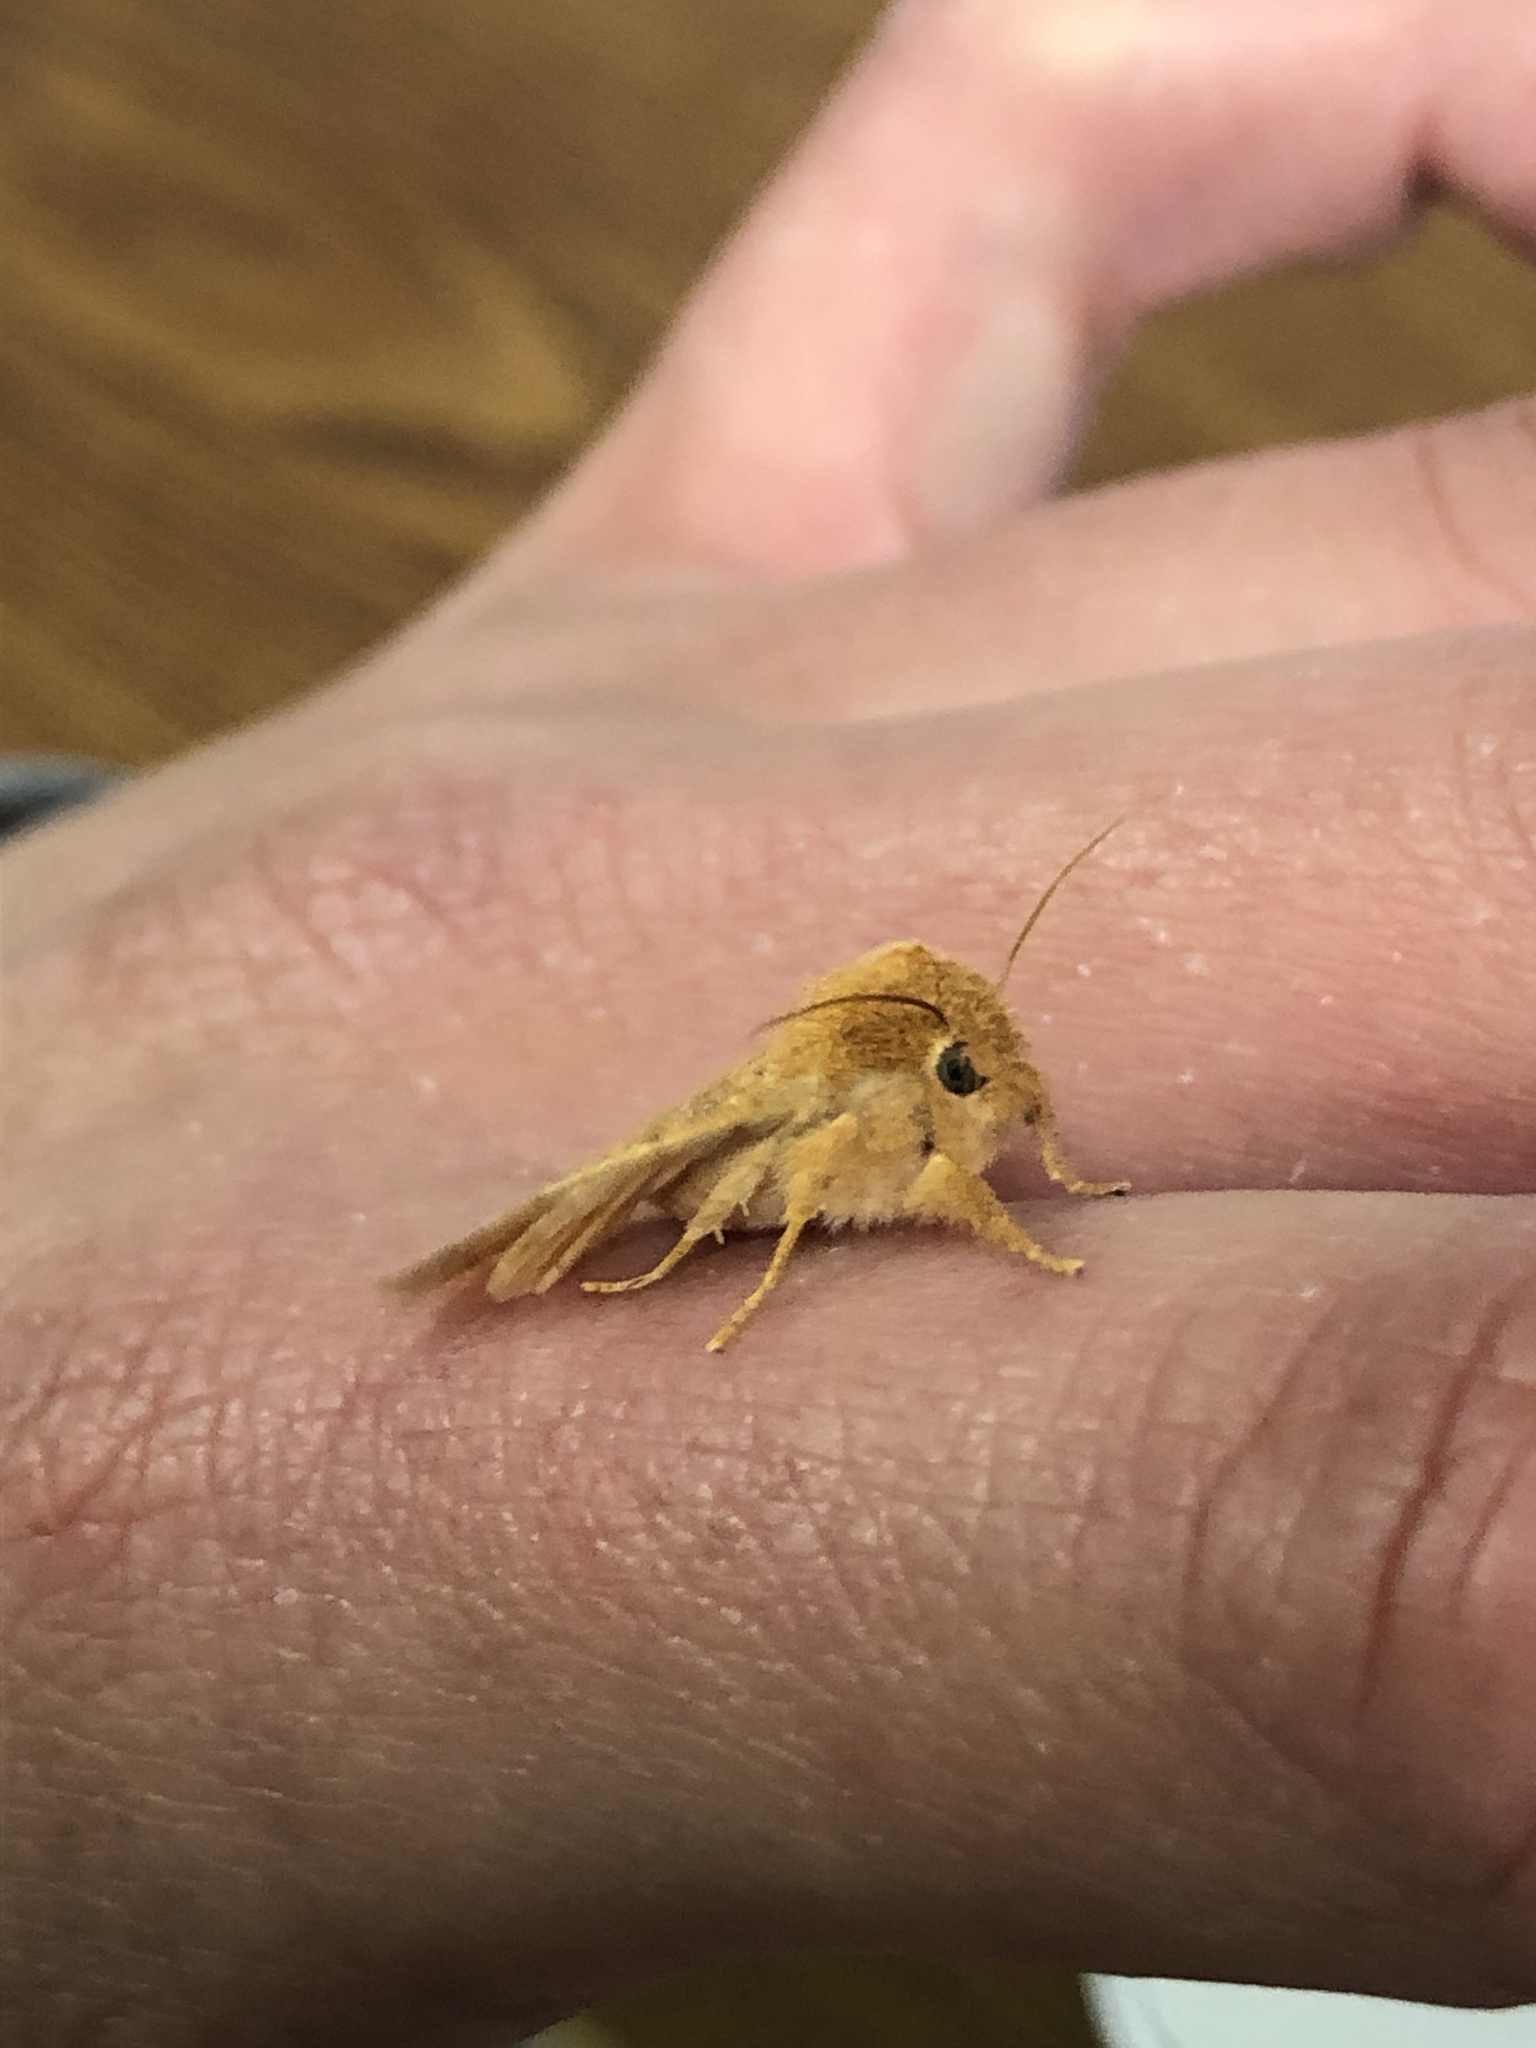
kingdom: Animalia
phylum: Arthropoda
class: Insecta
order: Lepidoptera
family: Noctuidae
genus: Pyreferra
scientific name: Pyreferra hesperidago
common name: Mustard sallow
